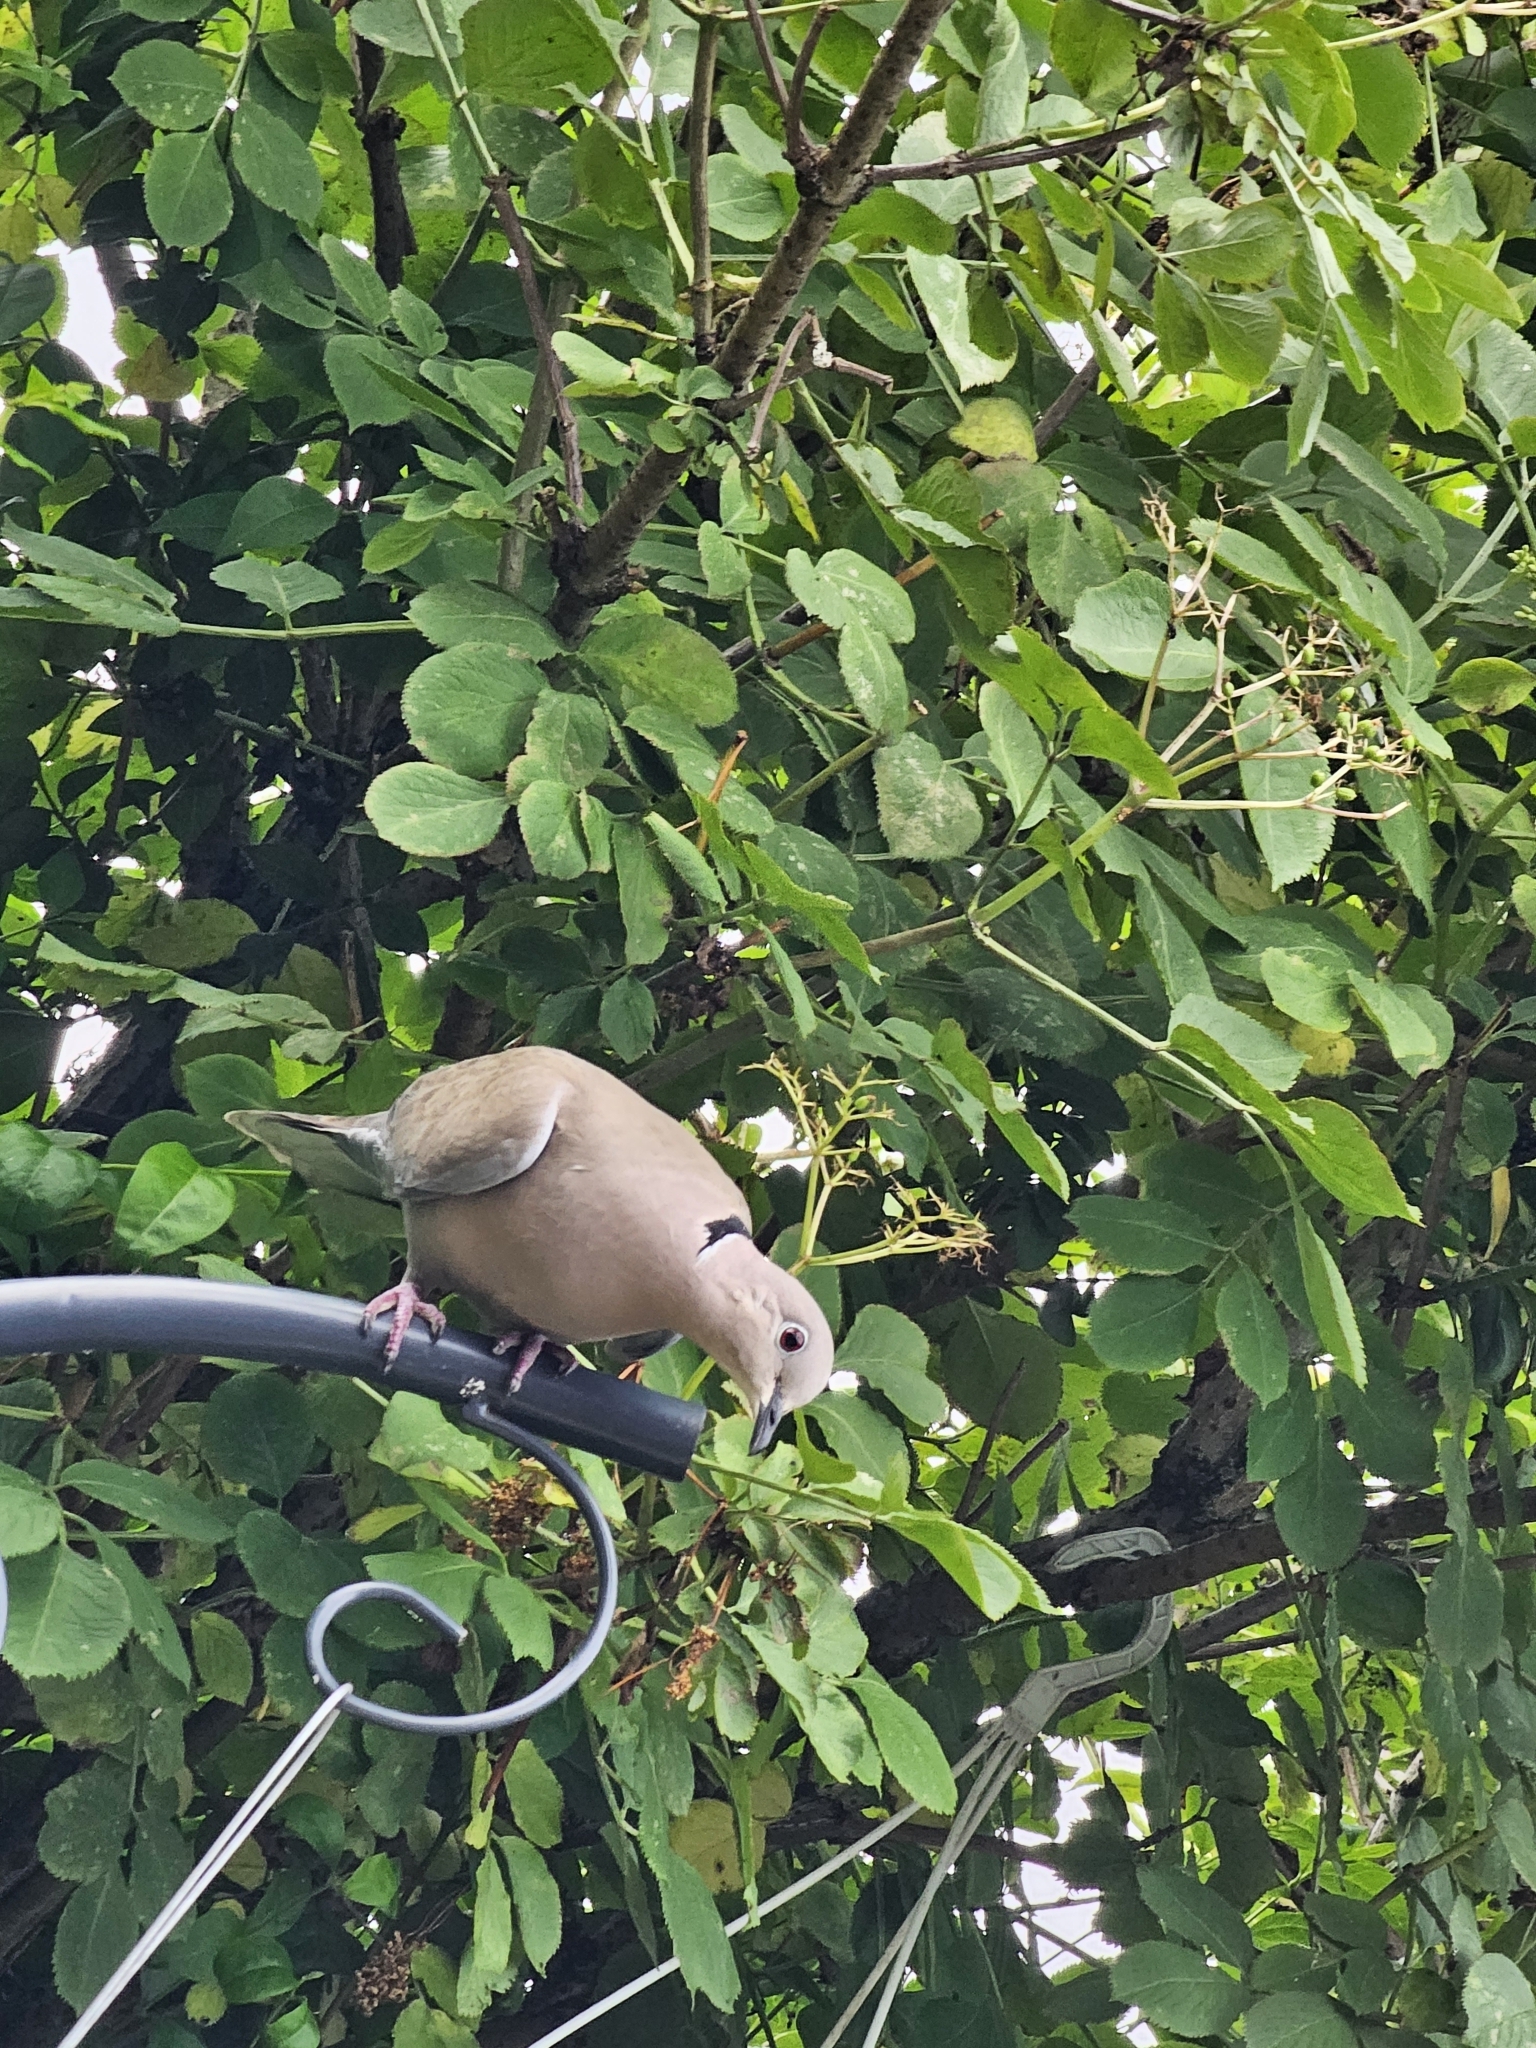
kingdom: Animalia
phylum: Chordata
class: Aves
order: Columbiformes
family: Columbidae
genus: Streptopelia
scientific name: Streptopelia decaocto
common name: Eurasian collared dove
